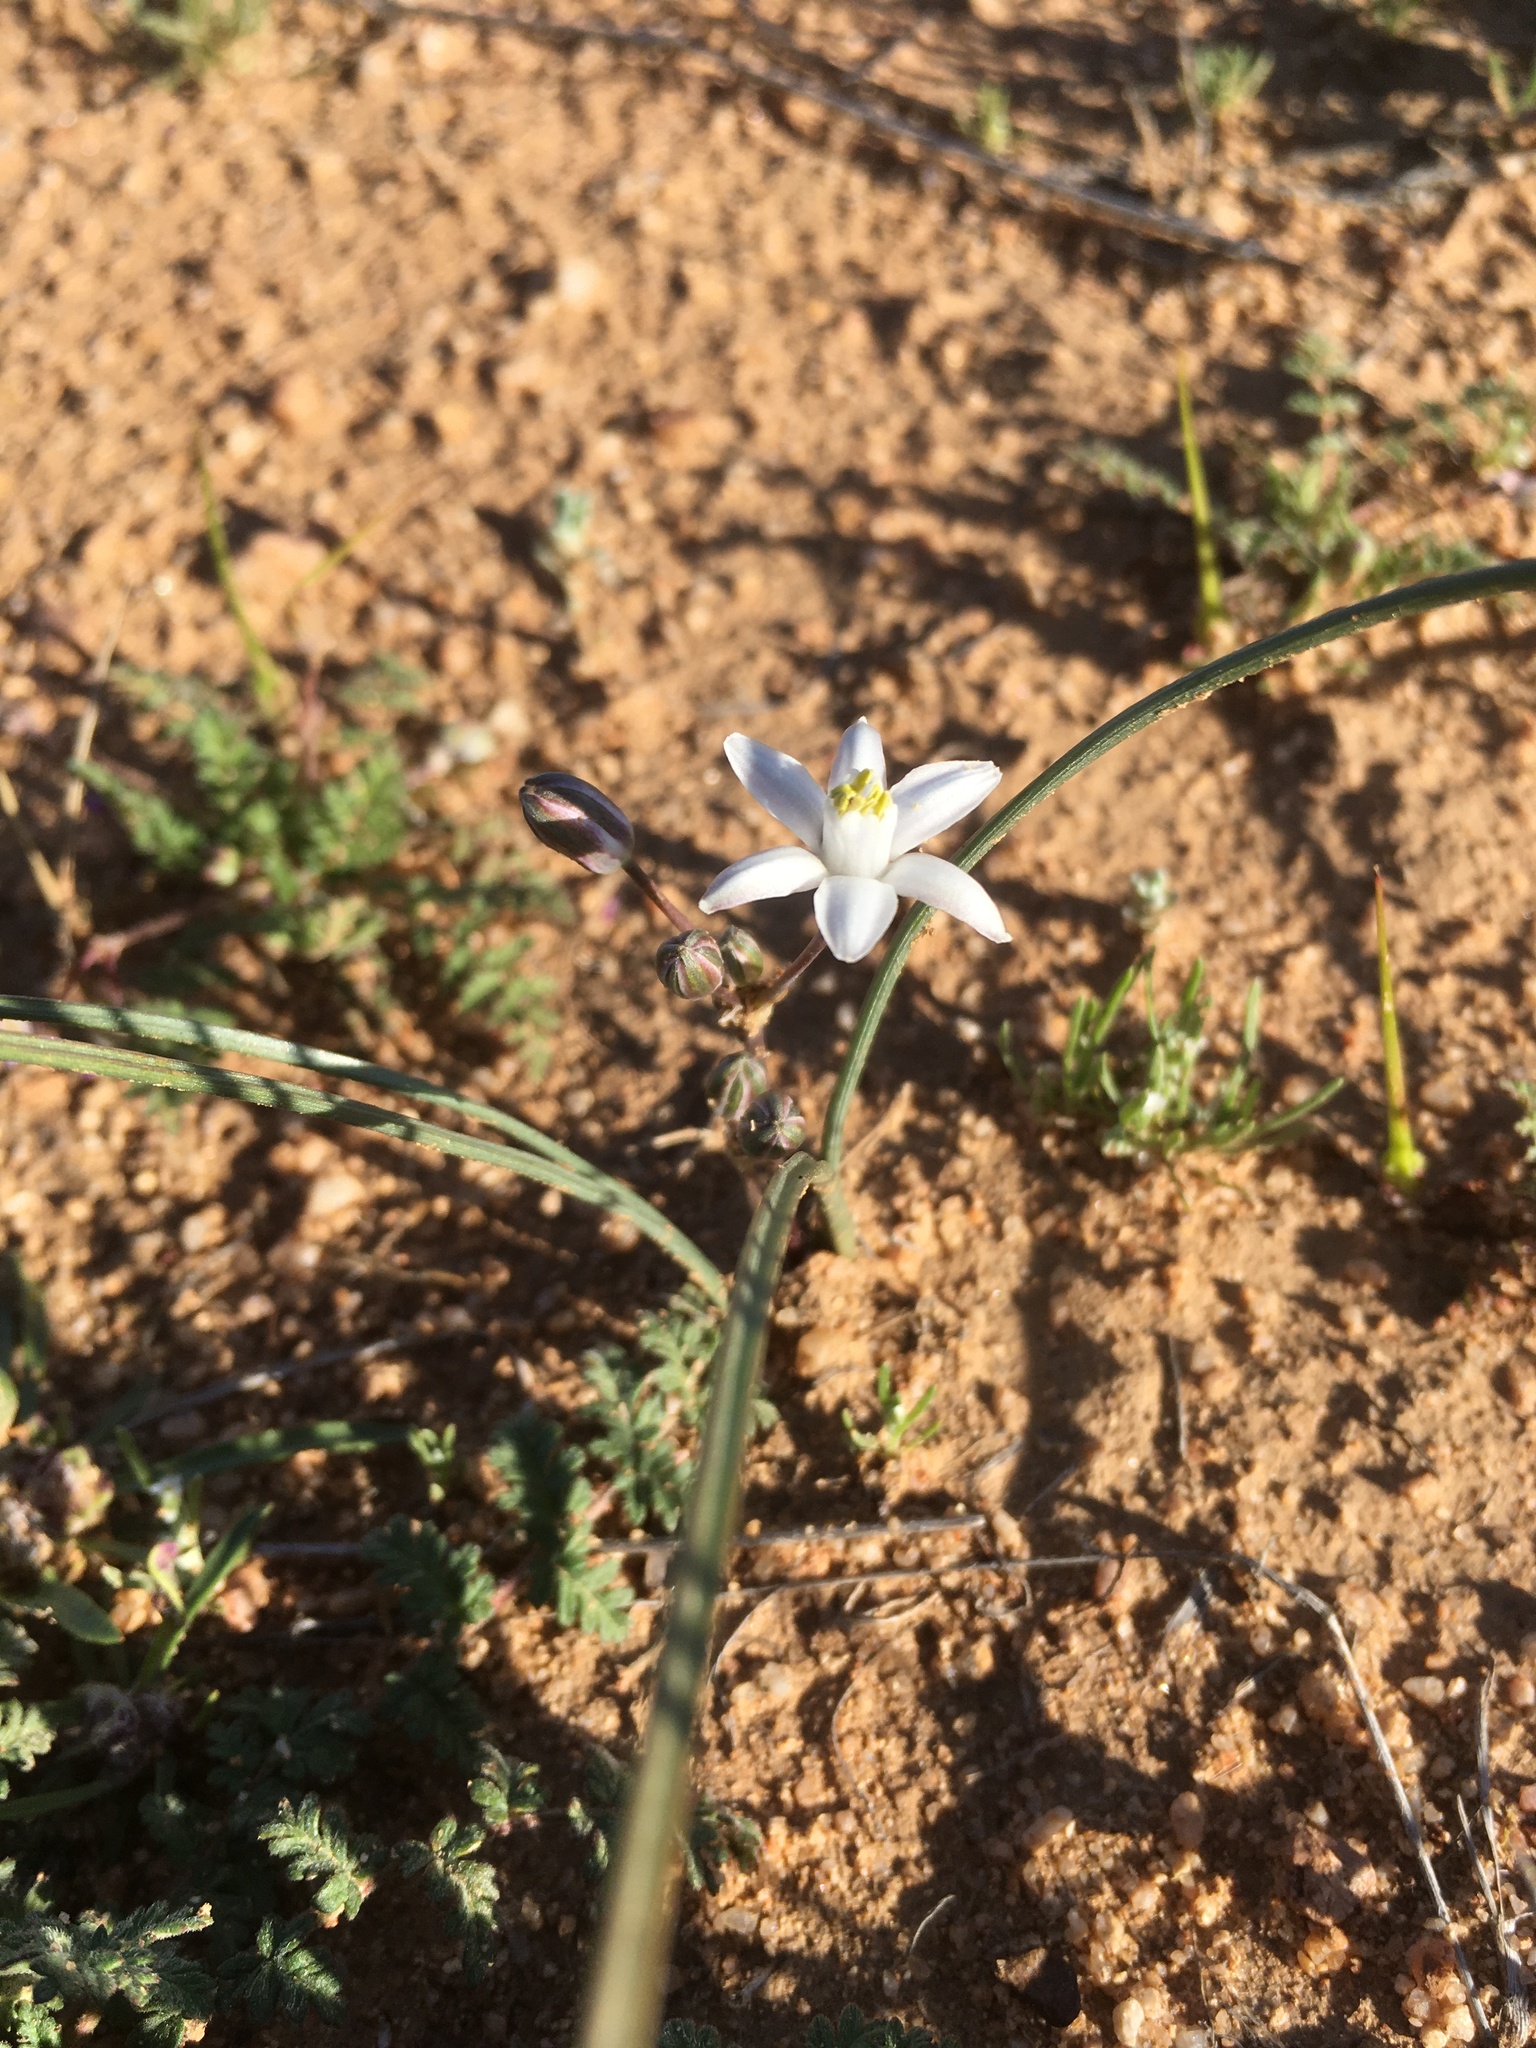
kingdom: Plantae
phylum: Tracheophyta
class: Liliopsida
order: Asparagales
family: Asparagaceae
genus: Muilla
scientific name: Muilla lordsburgana
